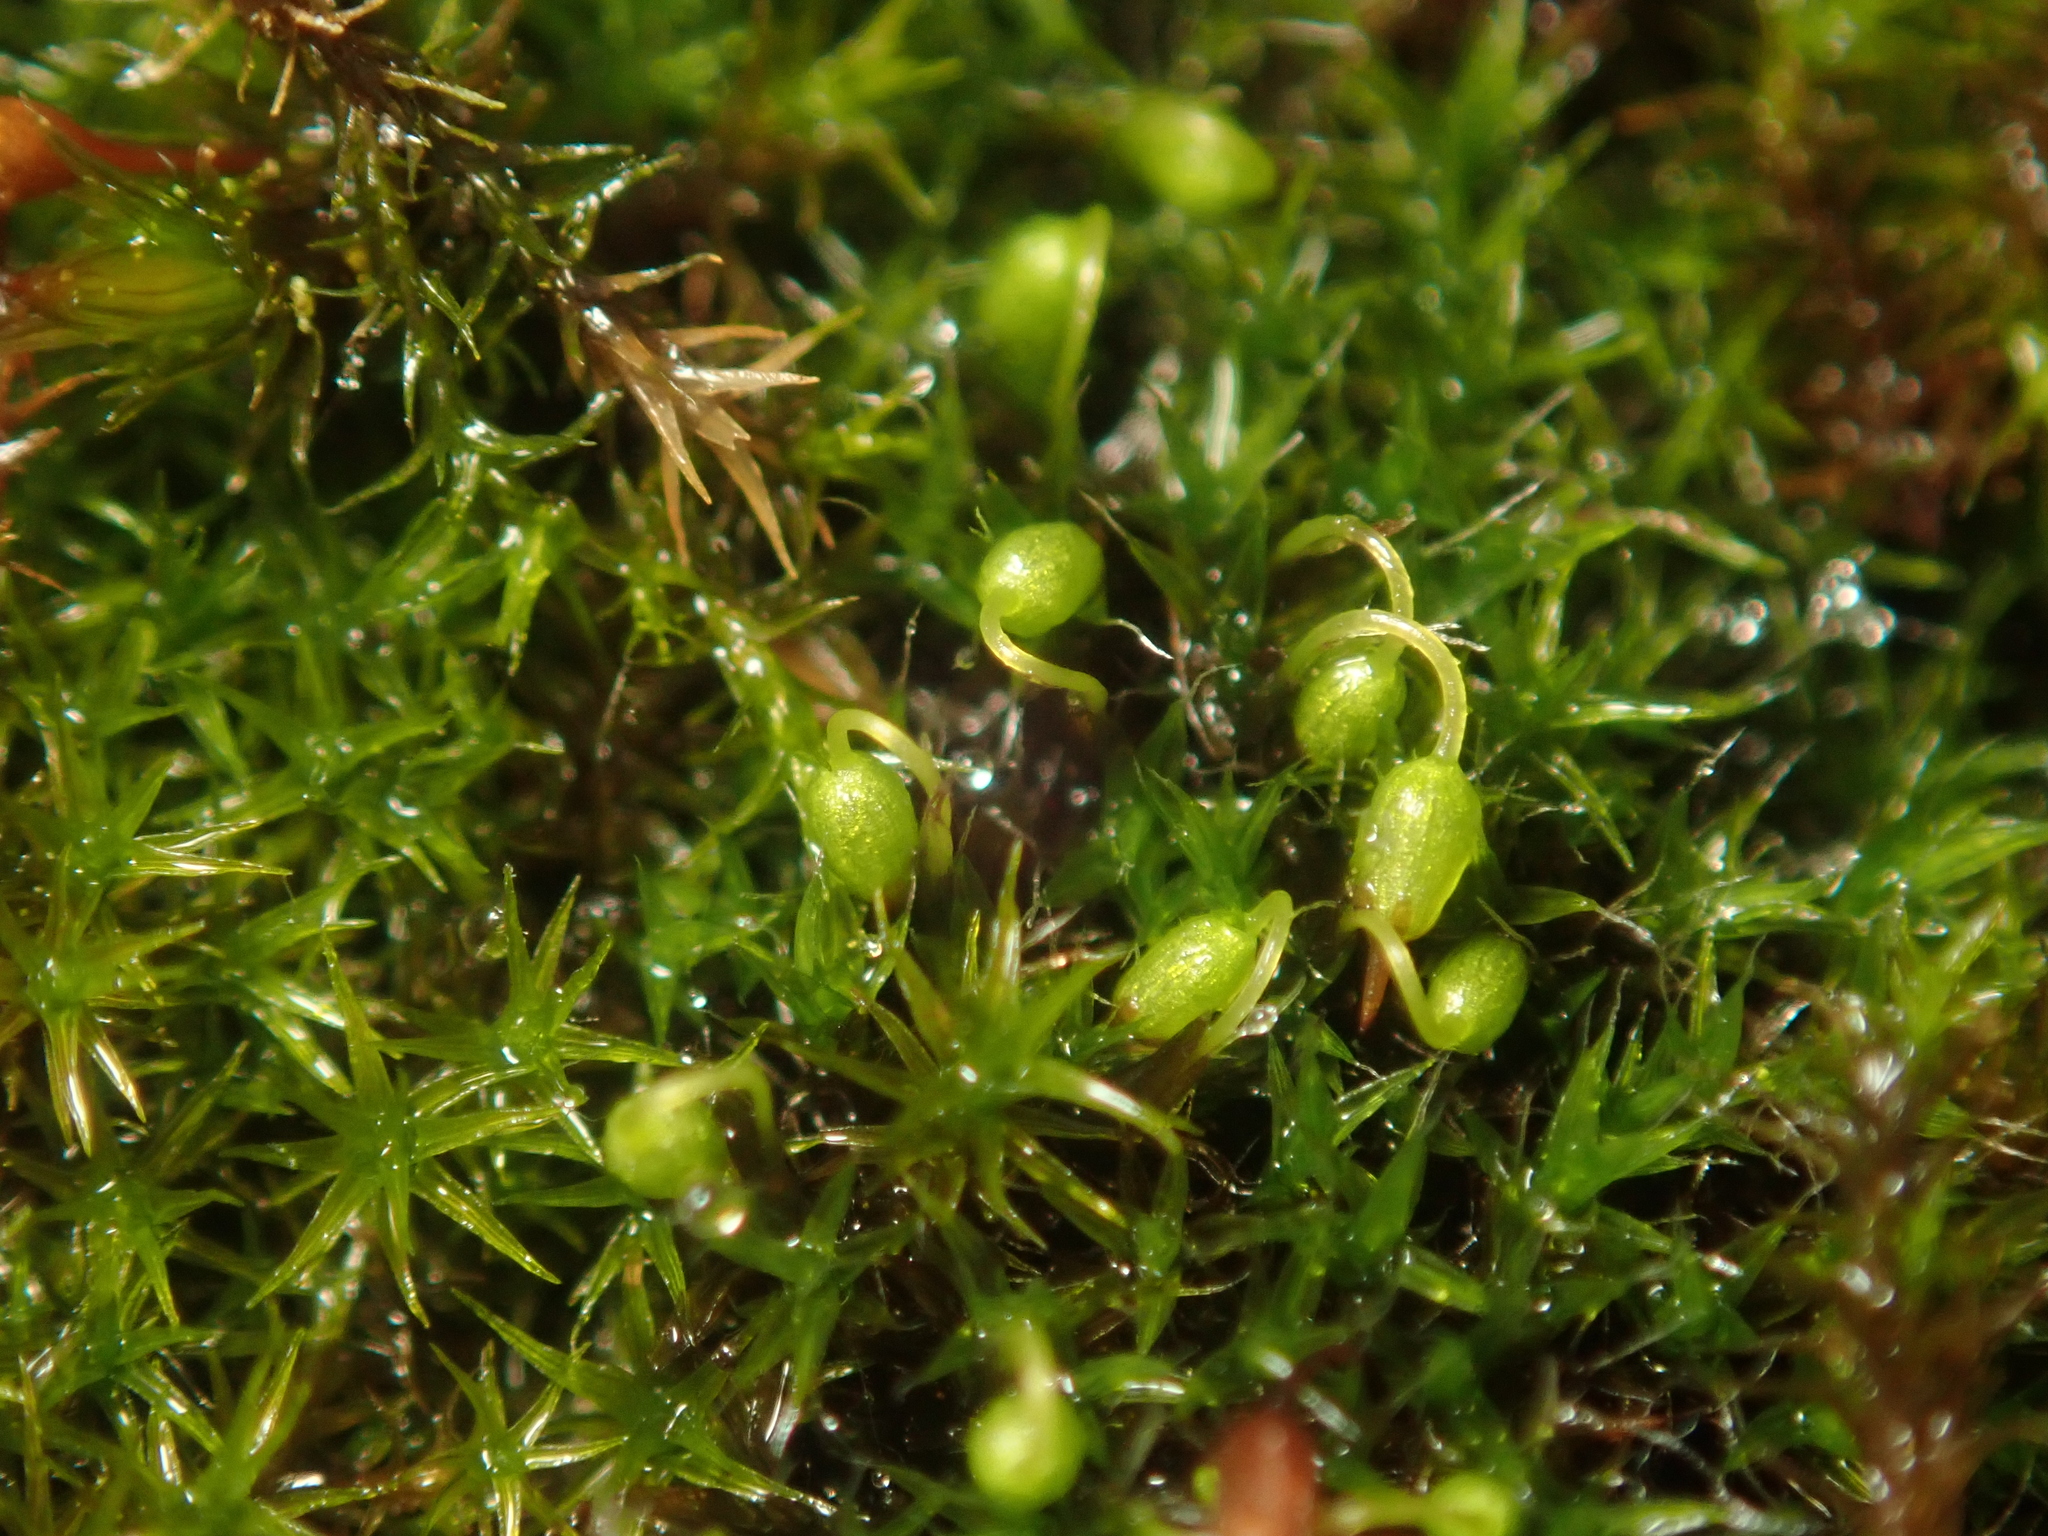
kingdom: Plantae
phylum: Bryophyta
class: Bryopsida
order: Grimmiales
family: Grimmiaceae
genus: Grimmia
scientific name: Grimmia pulvinata
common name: Grey-cushioned grimmia
